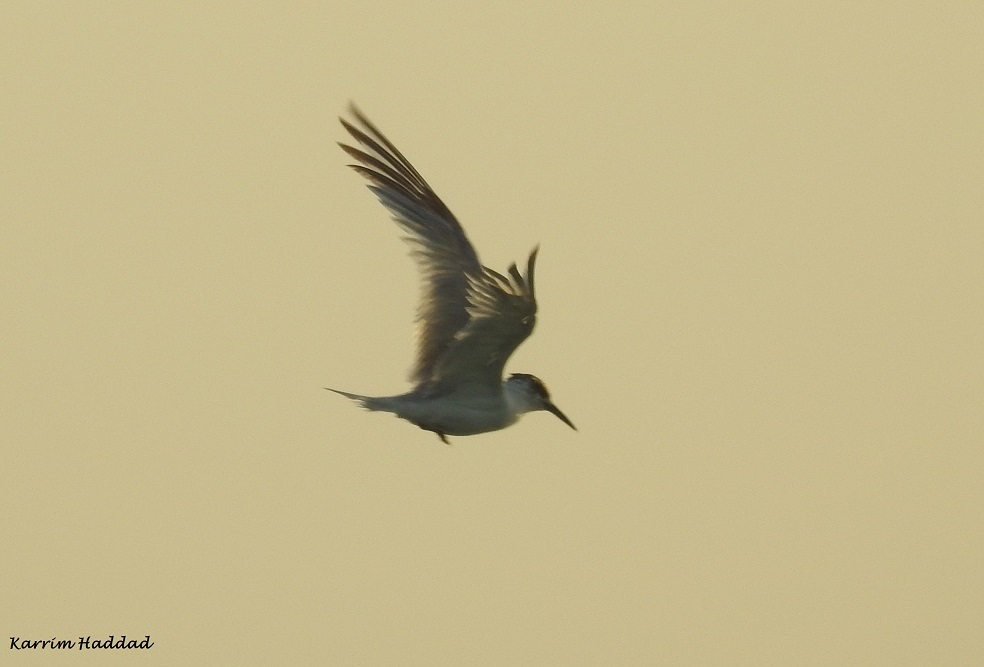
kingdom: Animalia
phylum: Chordata
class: Aves
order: Charadriiformes
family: Laridae
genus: Thalasseus
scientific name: Thalasseus sandvicensis
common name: Sandwich tern
